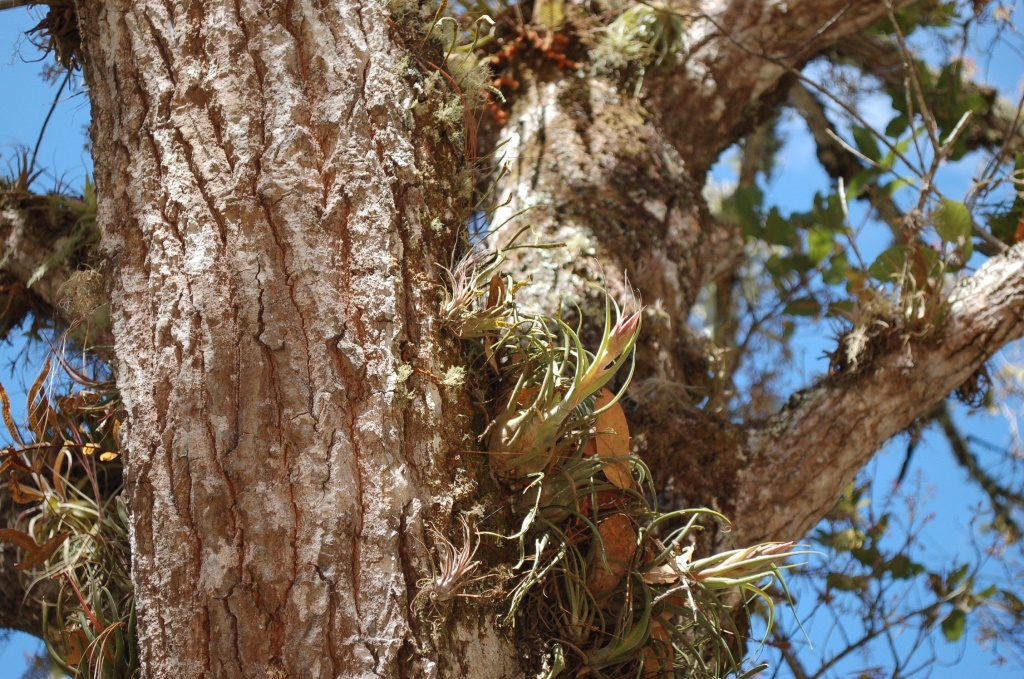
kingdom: Plantae
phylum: Tracheophyta
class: Liliopsida
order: Poales
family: Bromeliaceae
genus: Tillandsia
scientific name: Tillandsia seleriana
